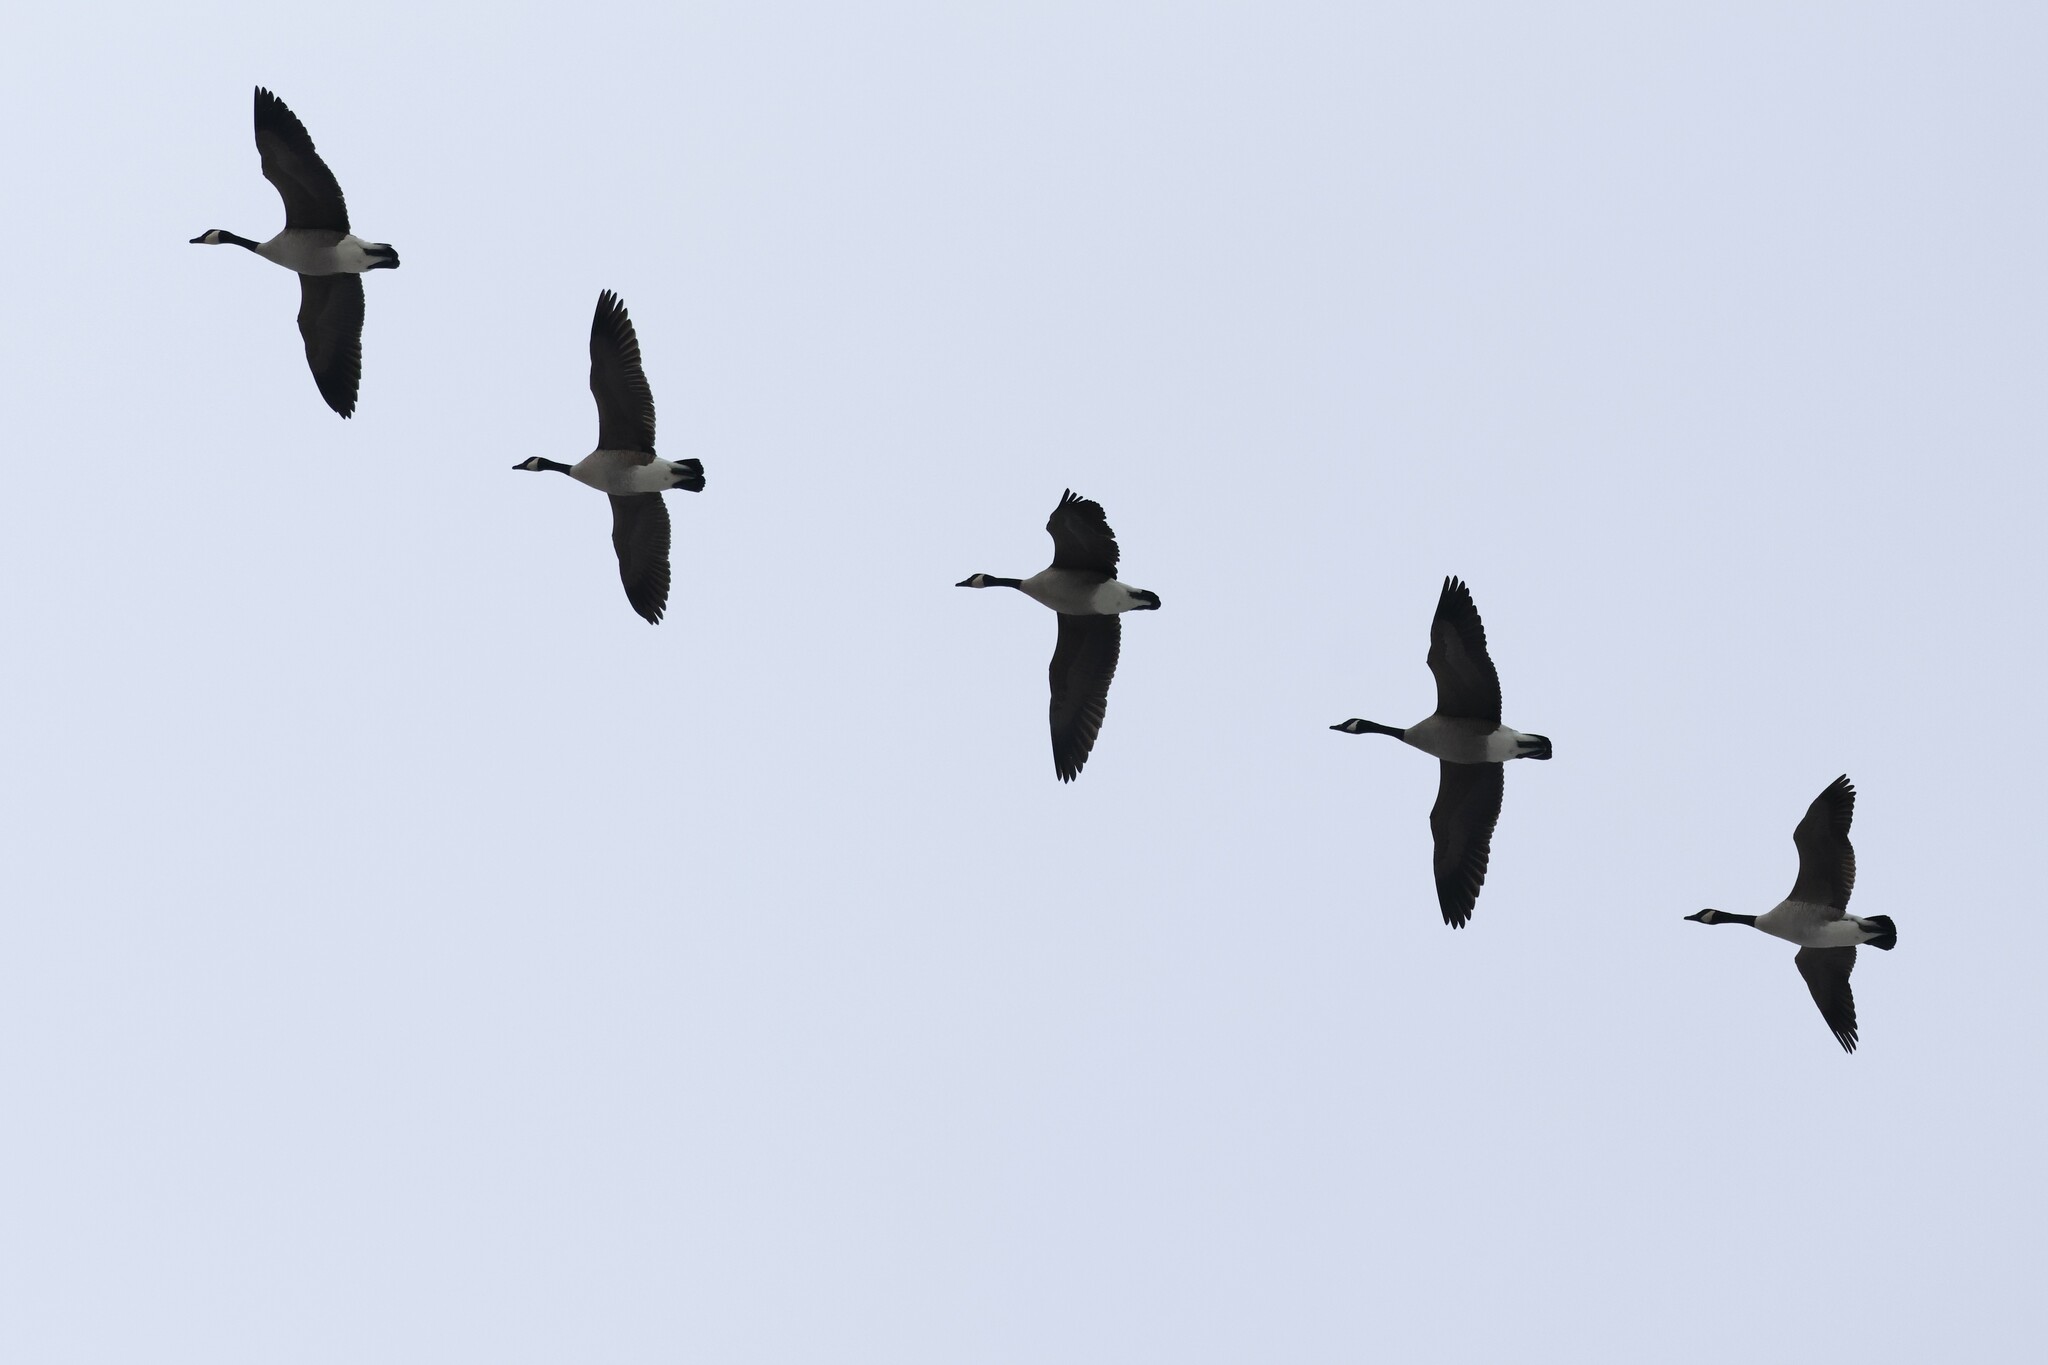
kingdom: Animalia
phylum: Chordata
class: Aves
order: Anseriformes
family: Anatidae
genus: Branta
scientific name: Branta canadensis
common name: Canada goose
